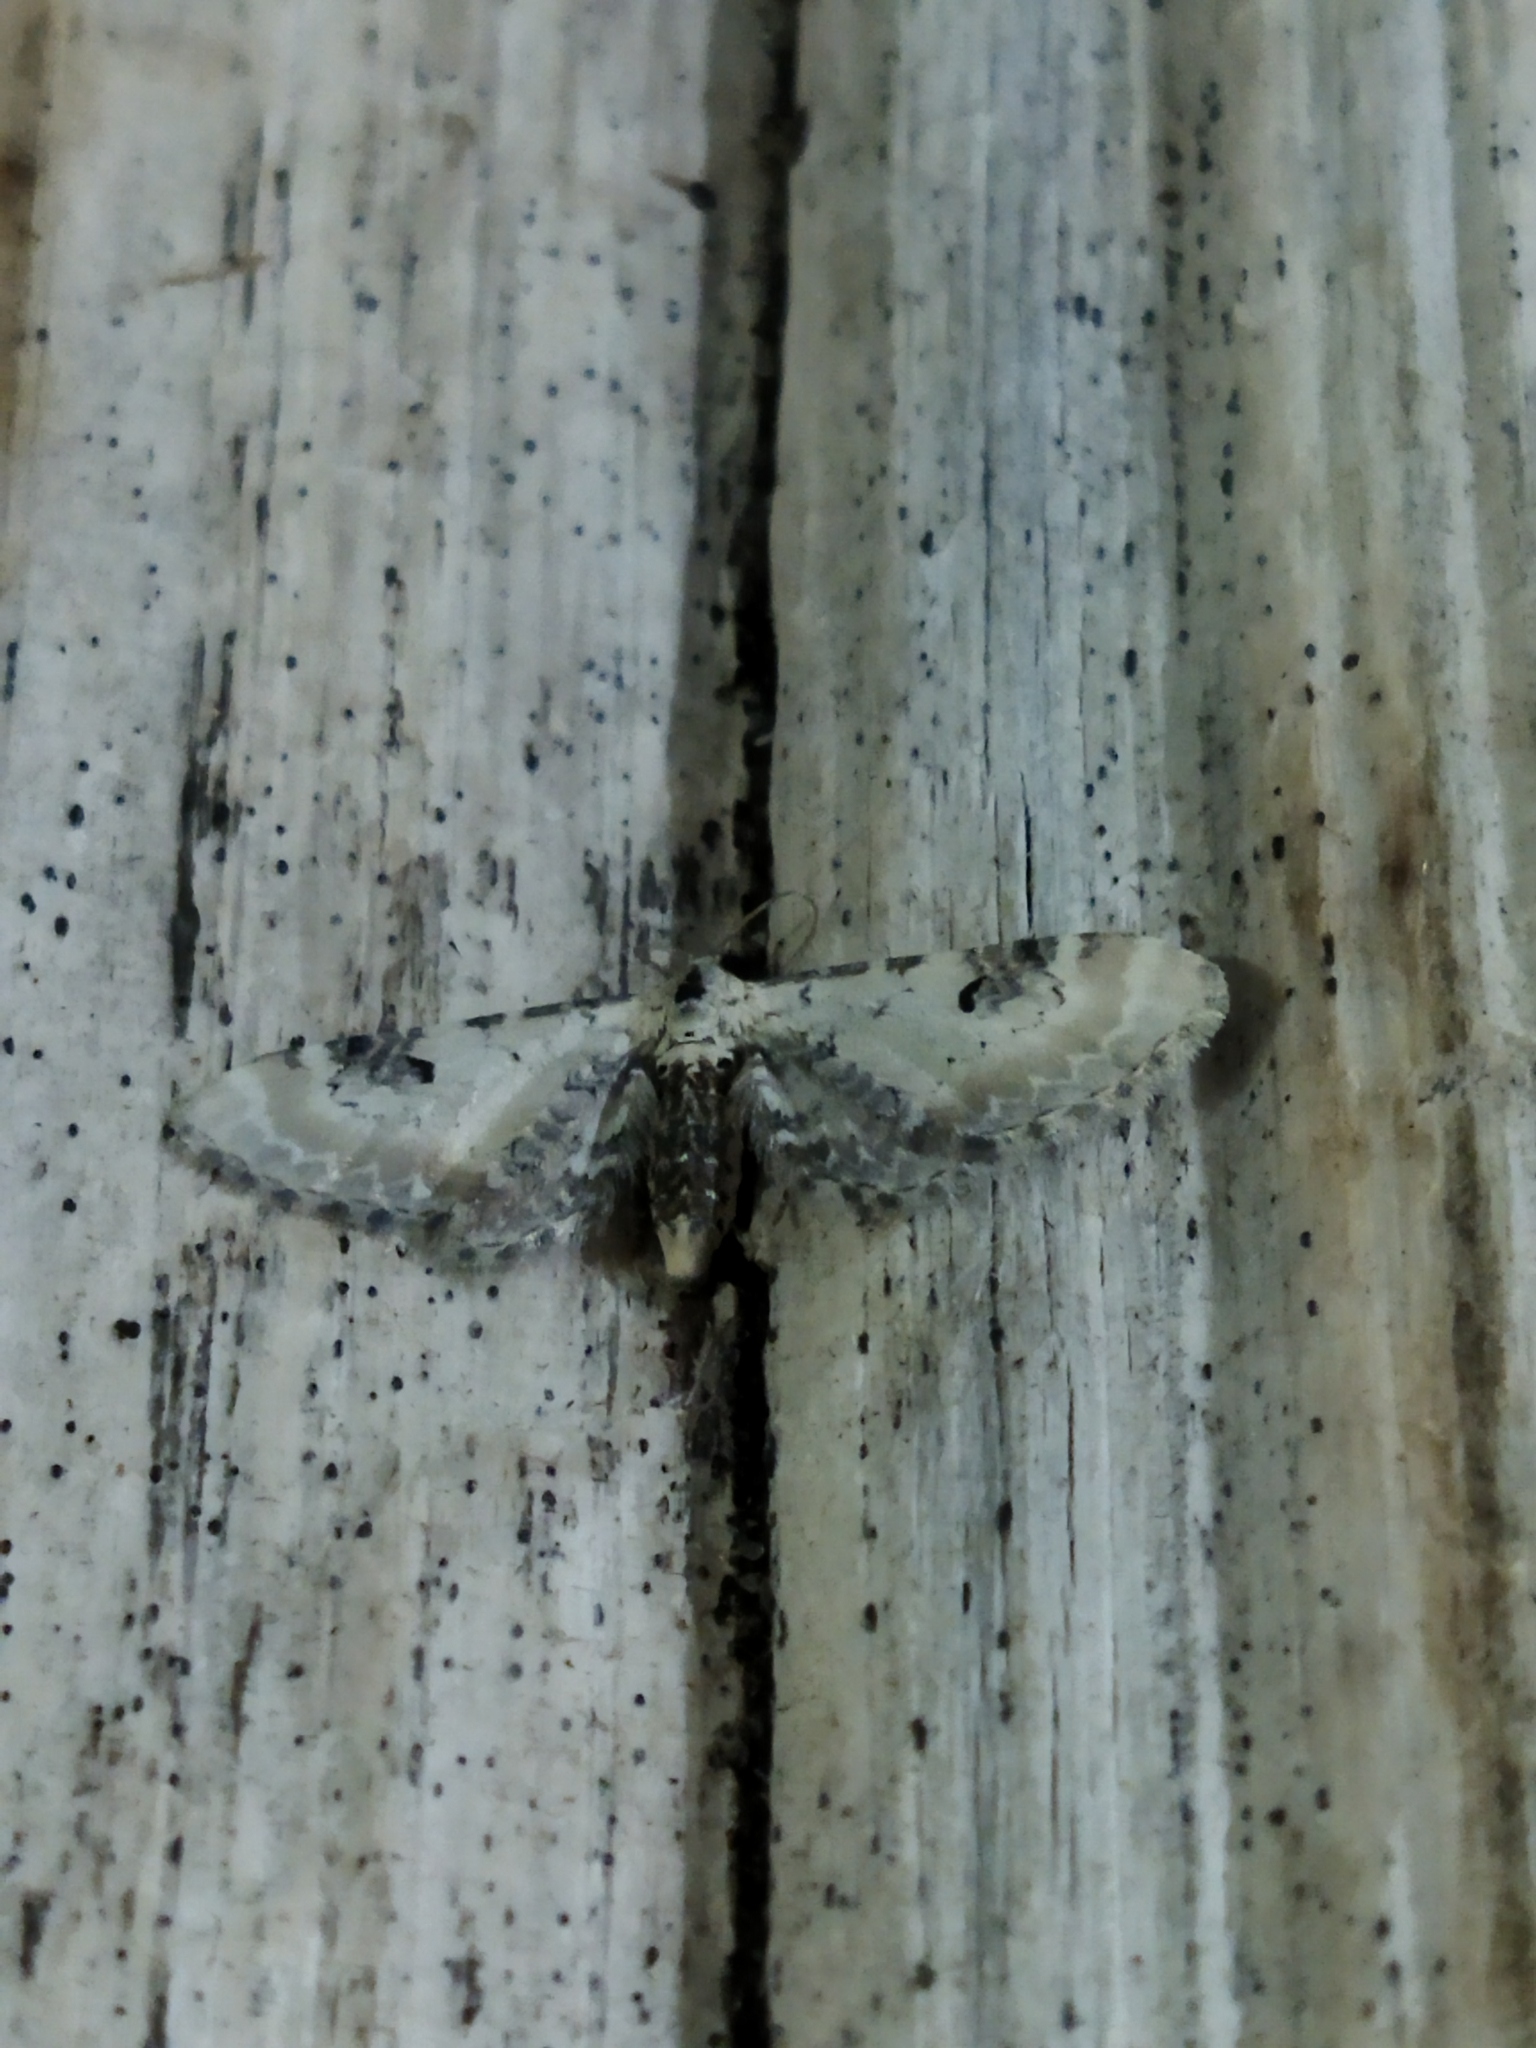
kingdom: Animalia
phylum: Arthropoda
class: Insecta
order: Lepidoptera
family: Geometridae
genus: Eupithecia
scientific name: Eupithecia centaureata
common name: Lime-speck pug
